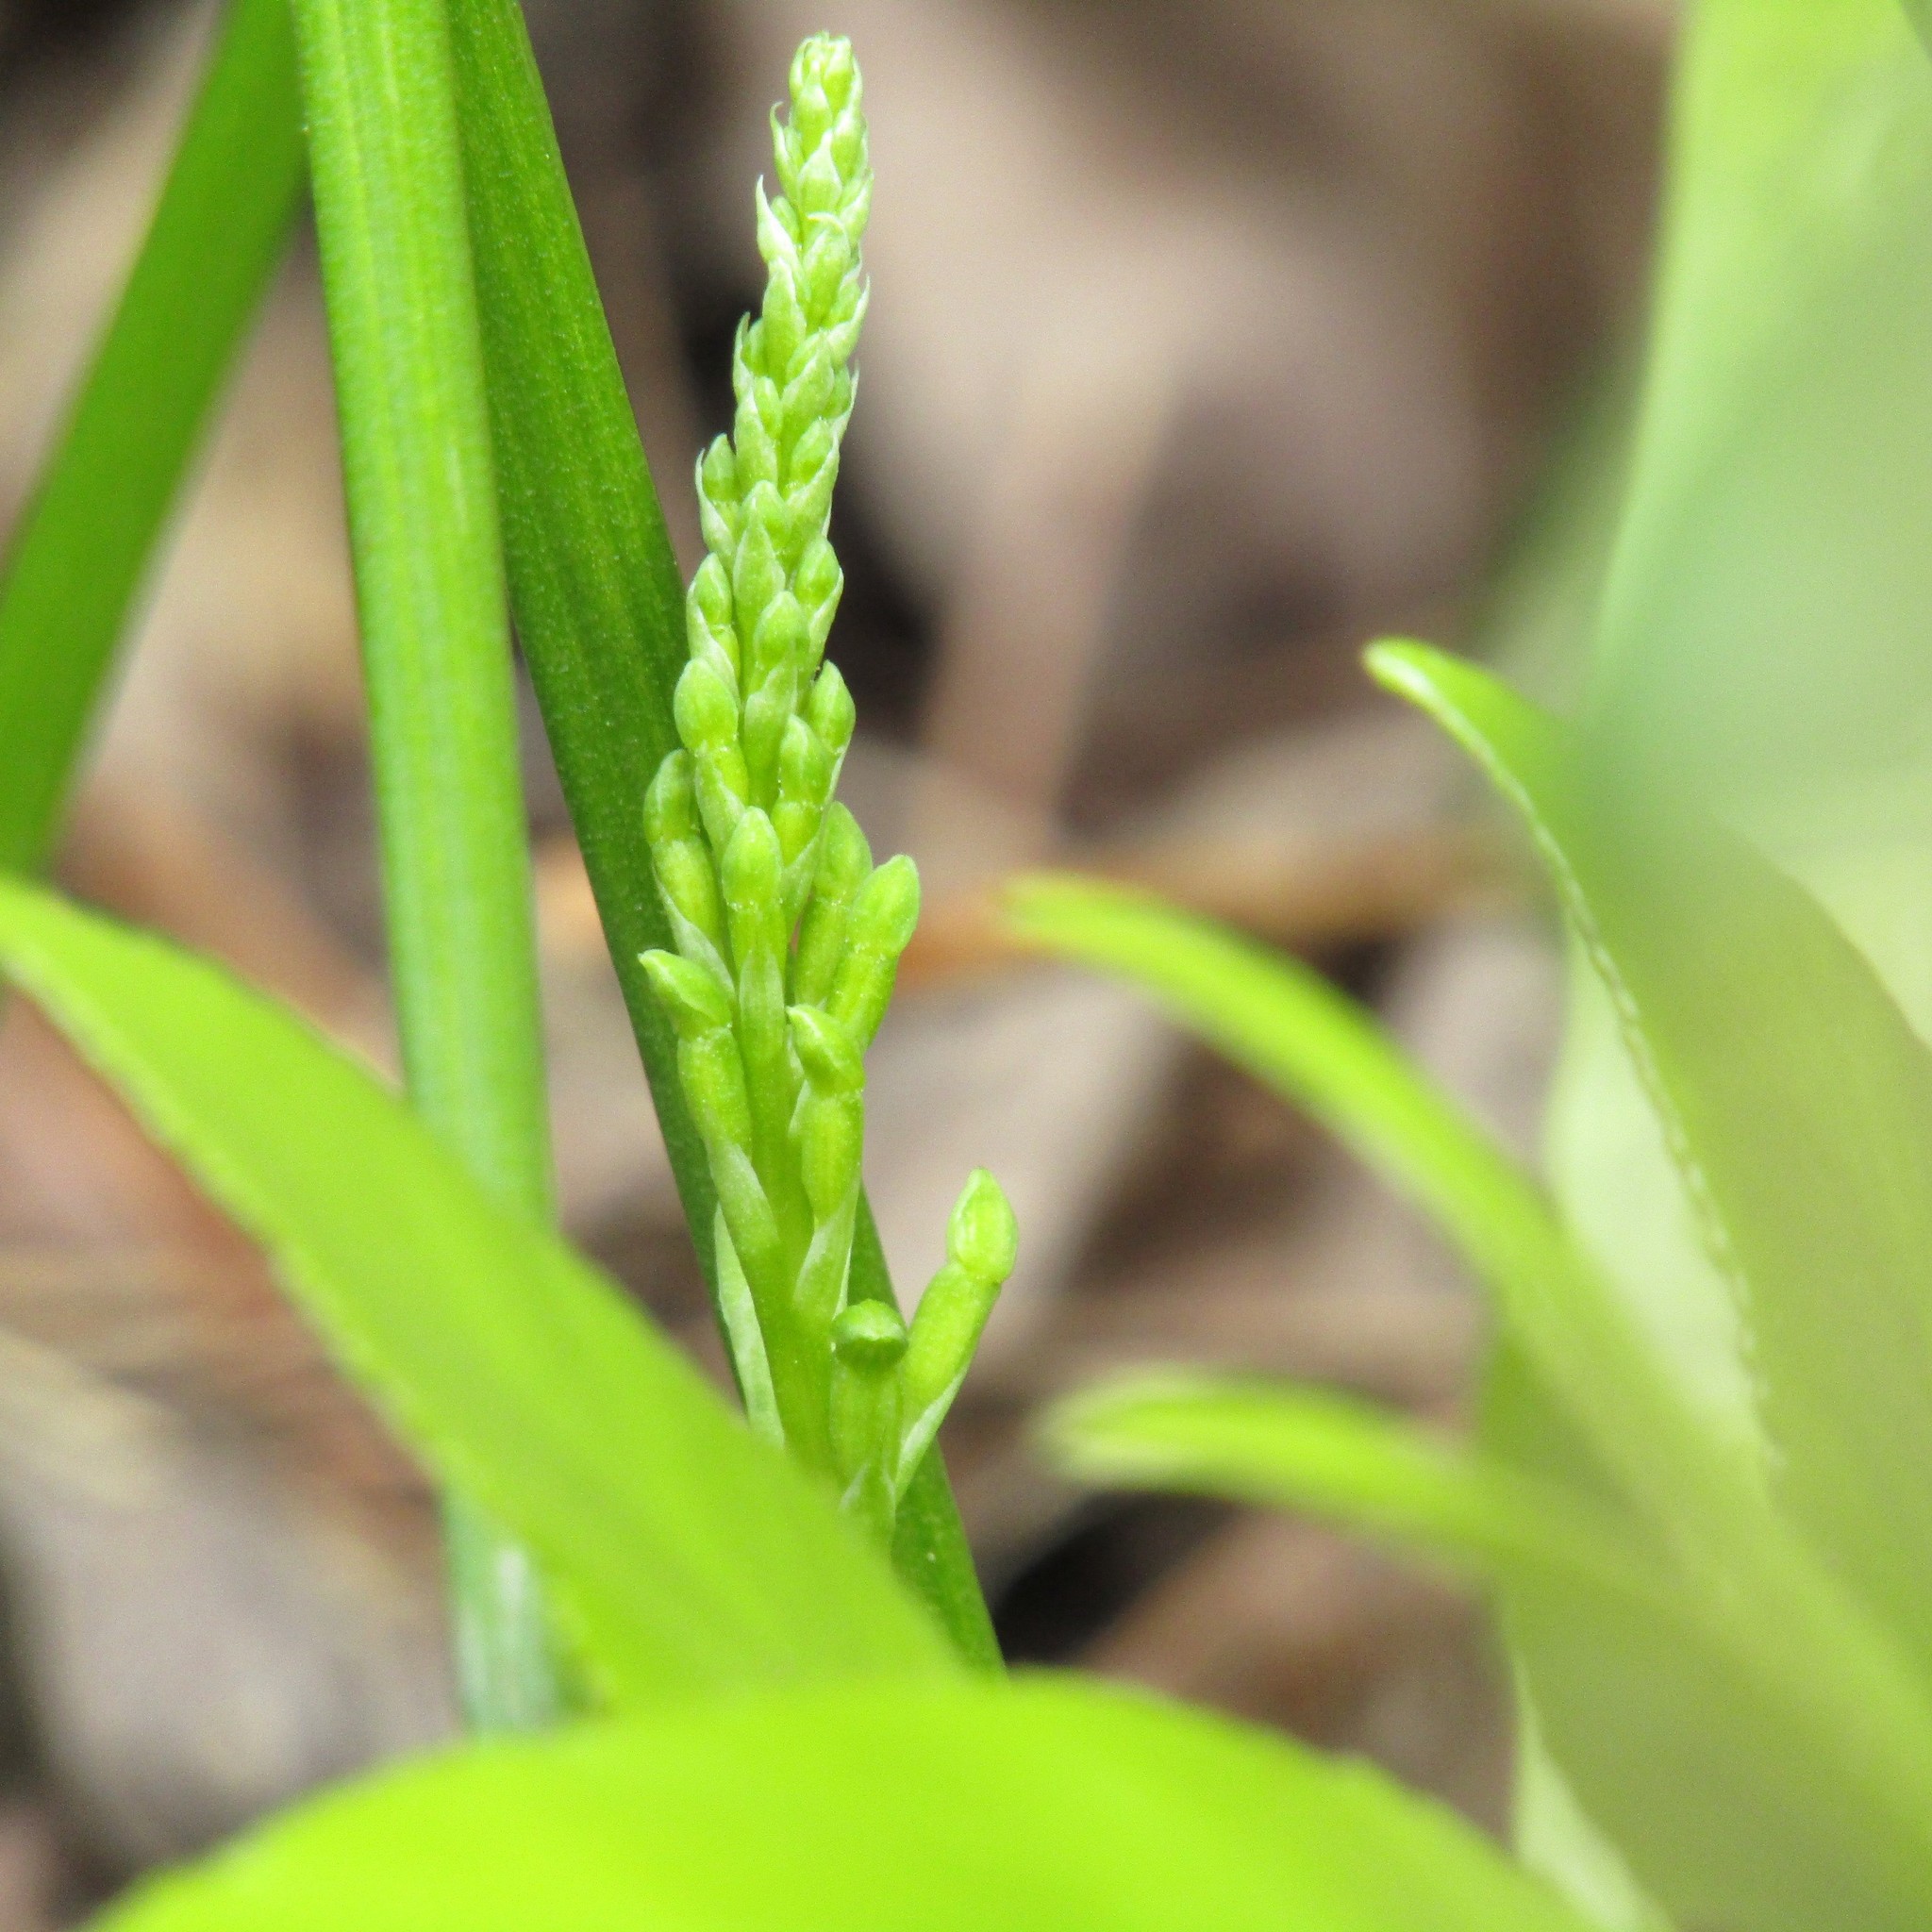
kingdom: Plantae
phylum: Tracheophyta
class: Liliopsida
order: Asparagales
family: Orchidaceae
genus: Microtis
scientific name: Microtis unifolia
